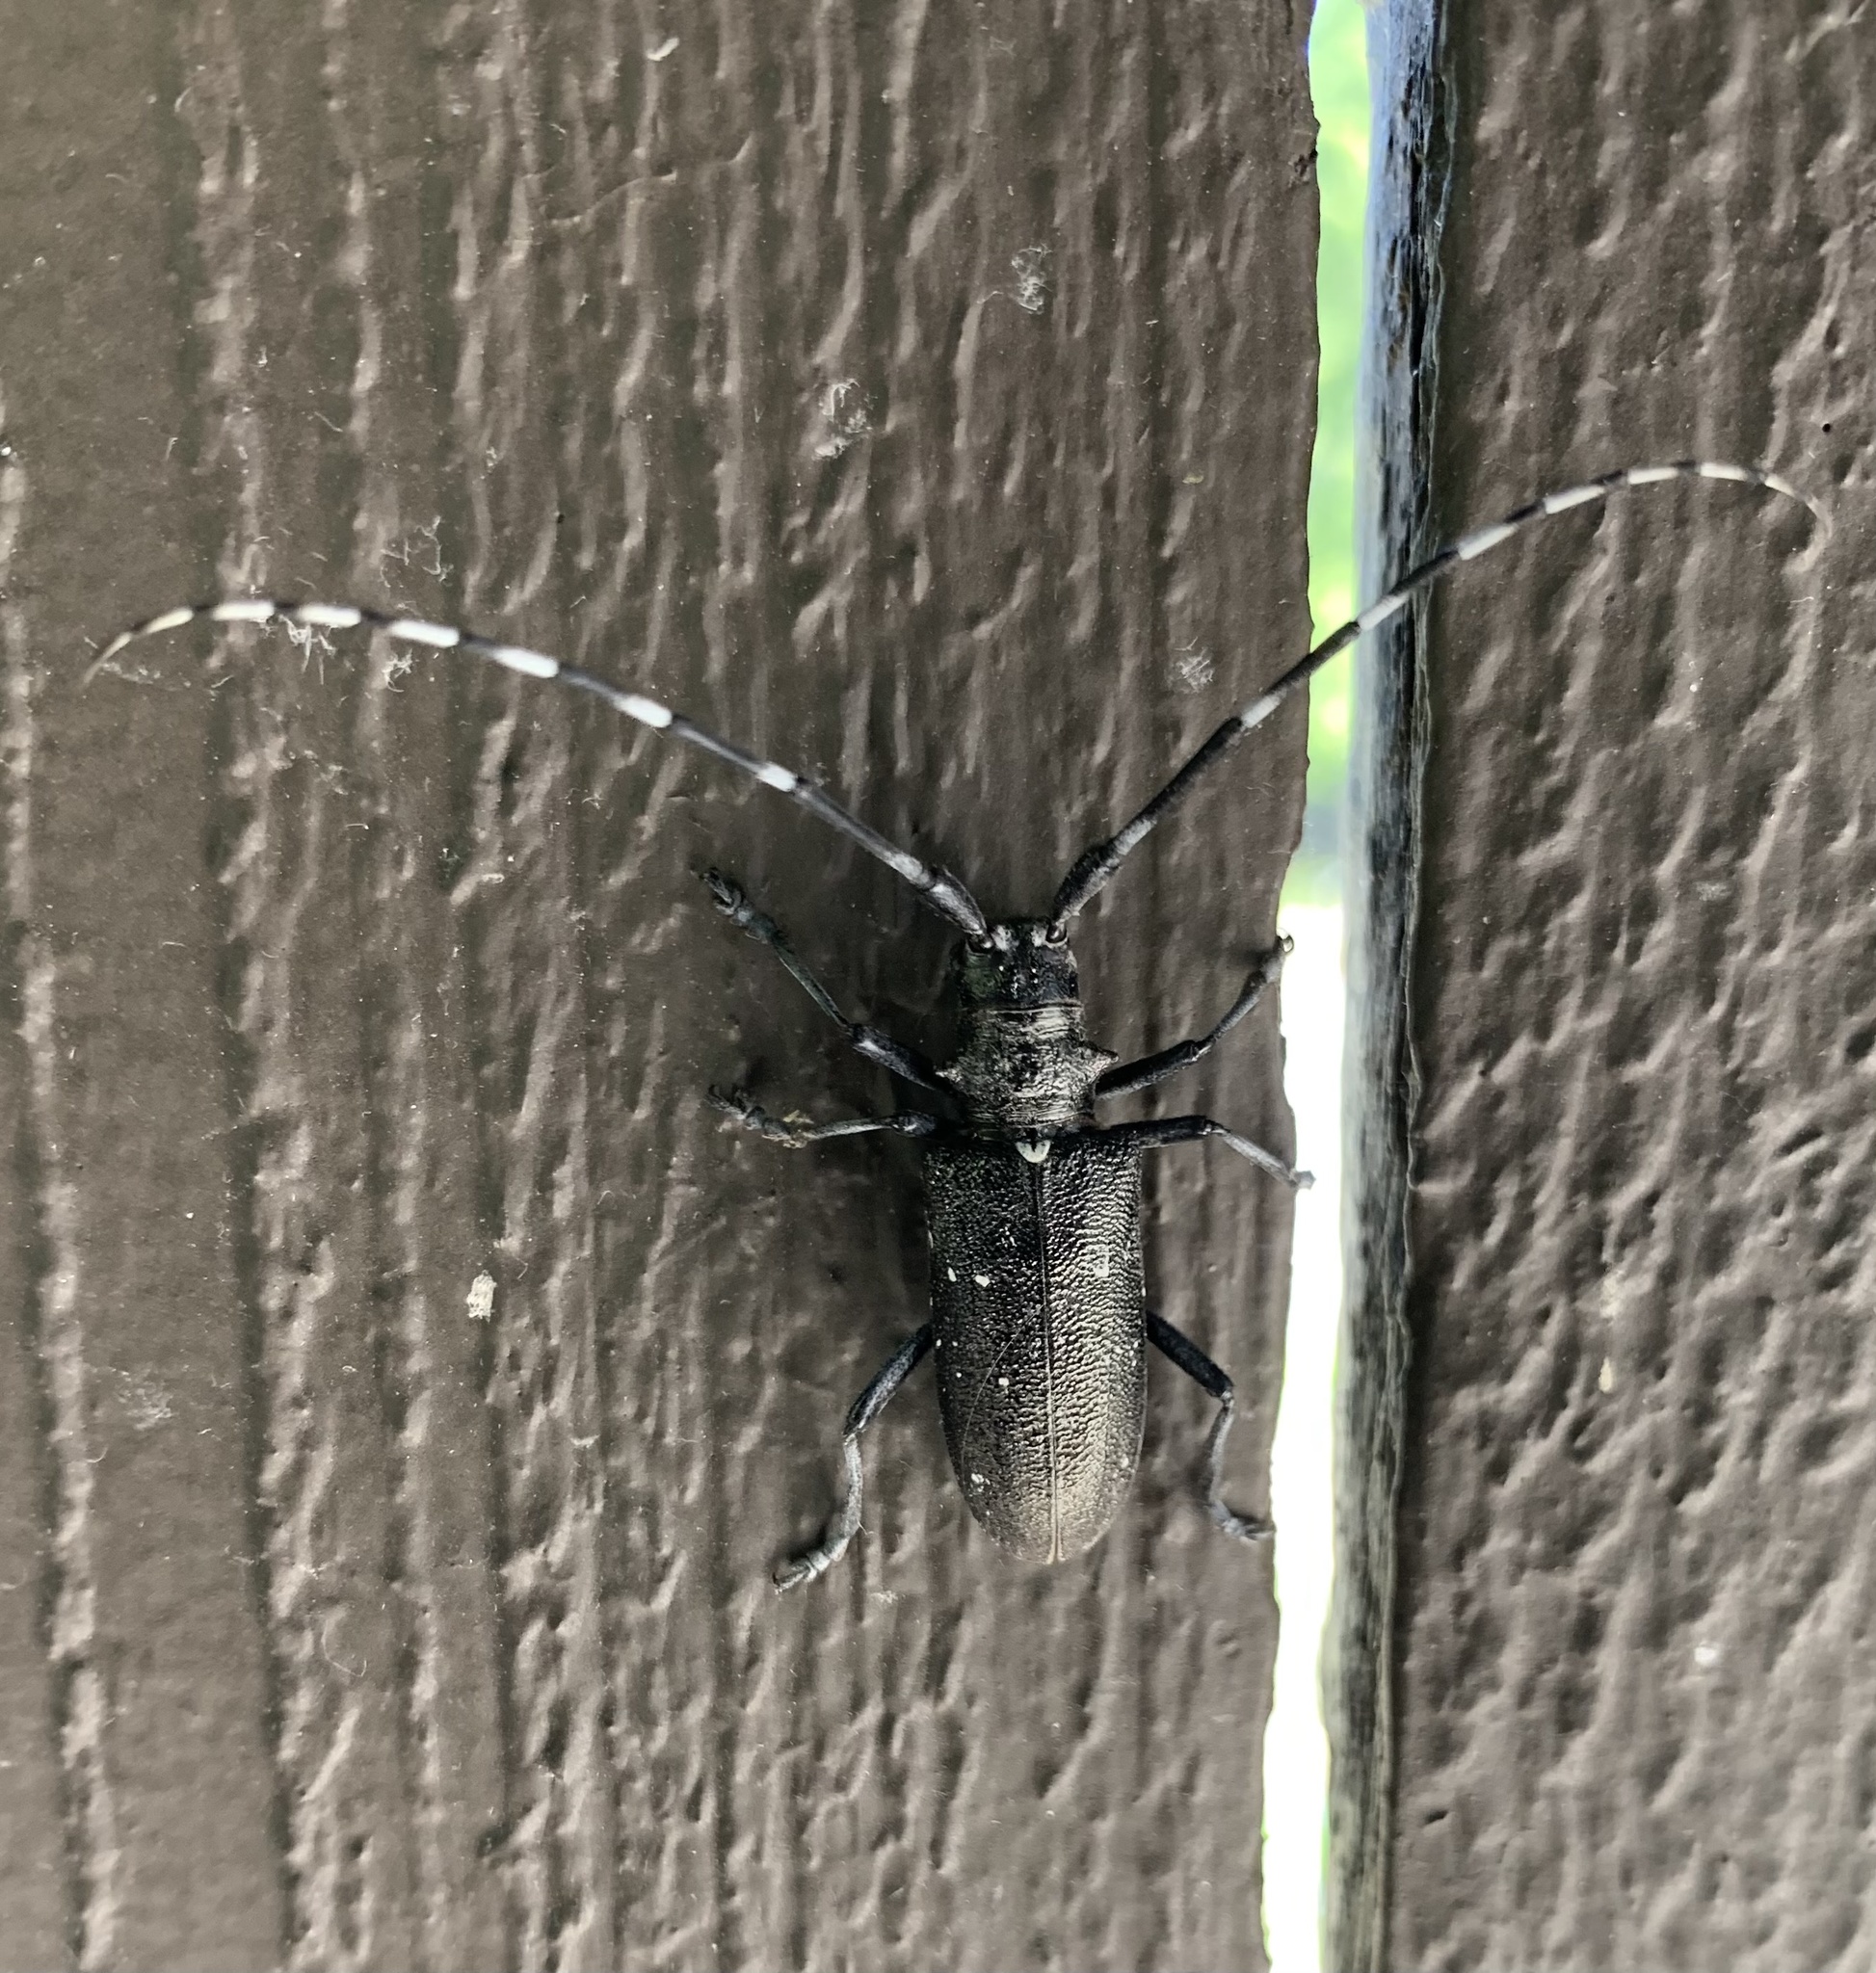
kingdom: Animalia
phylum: Arthropoda
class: Insecta
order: Coleoptera
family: Cerambycidae
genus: Monochamus
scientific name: Monochamus scutellatus
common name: White-spotted sawyer beetle
